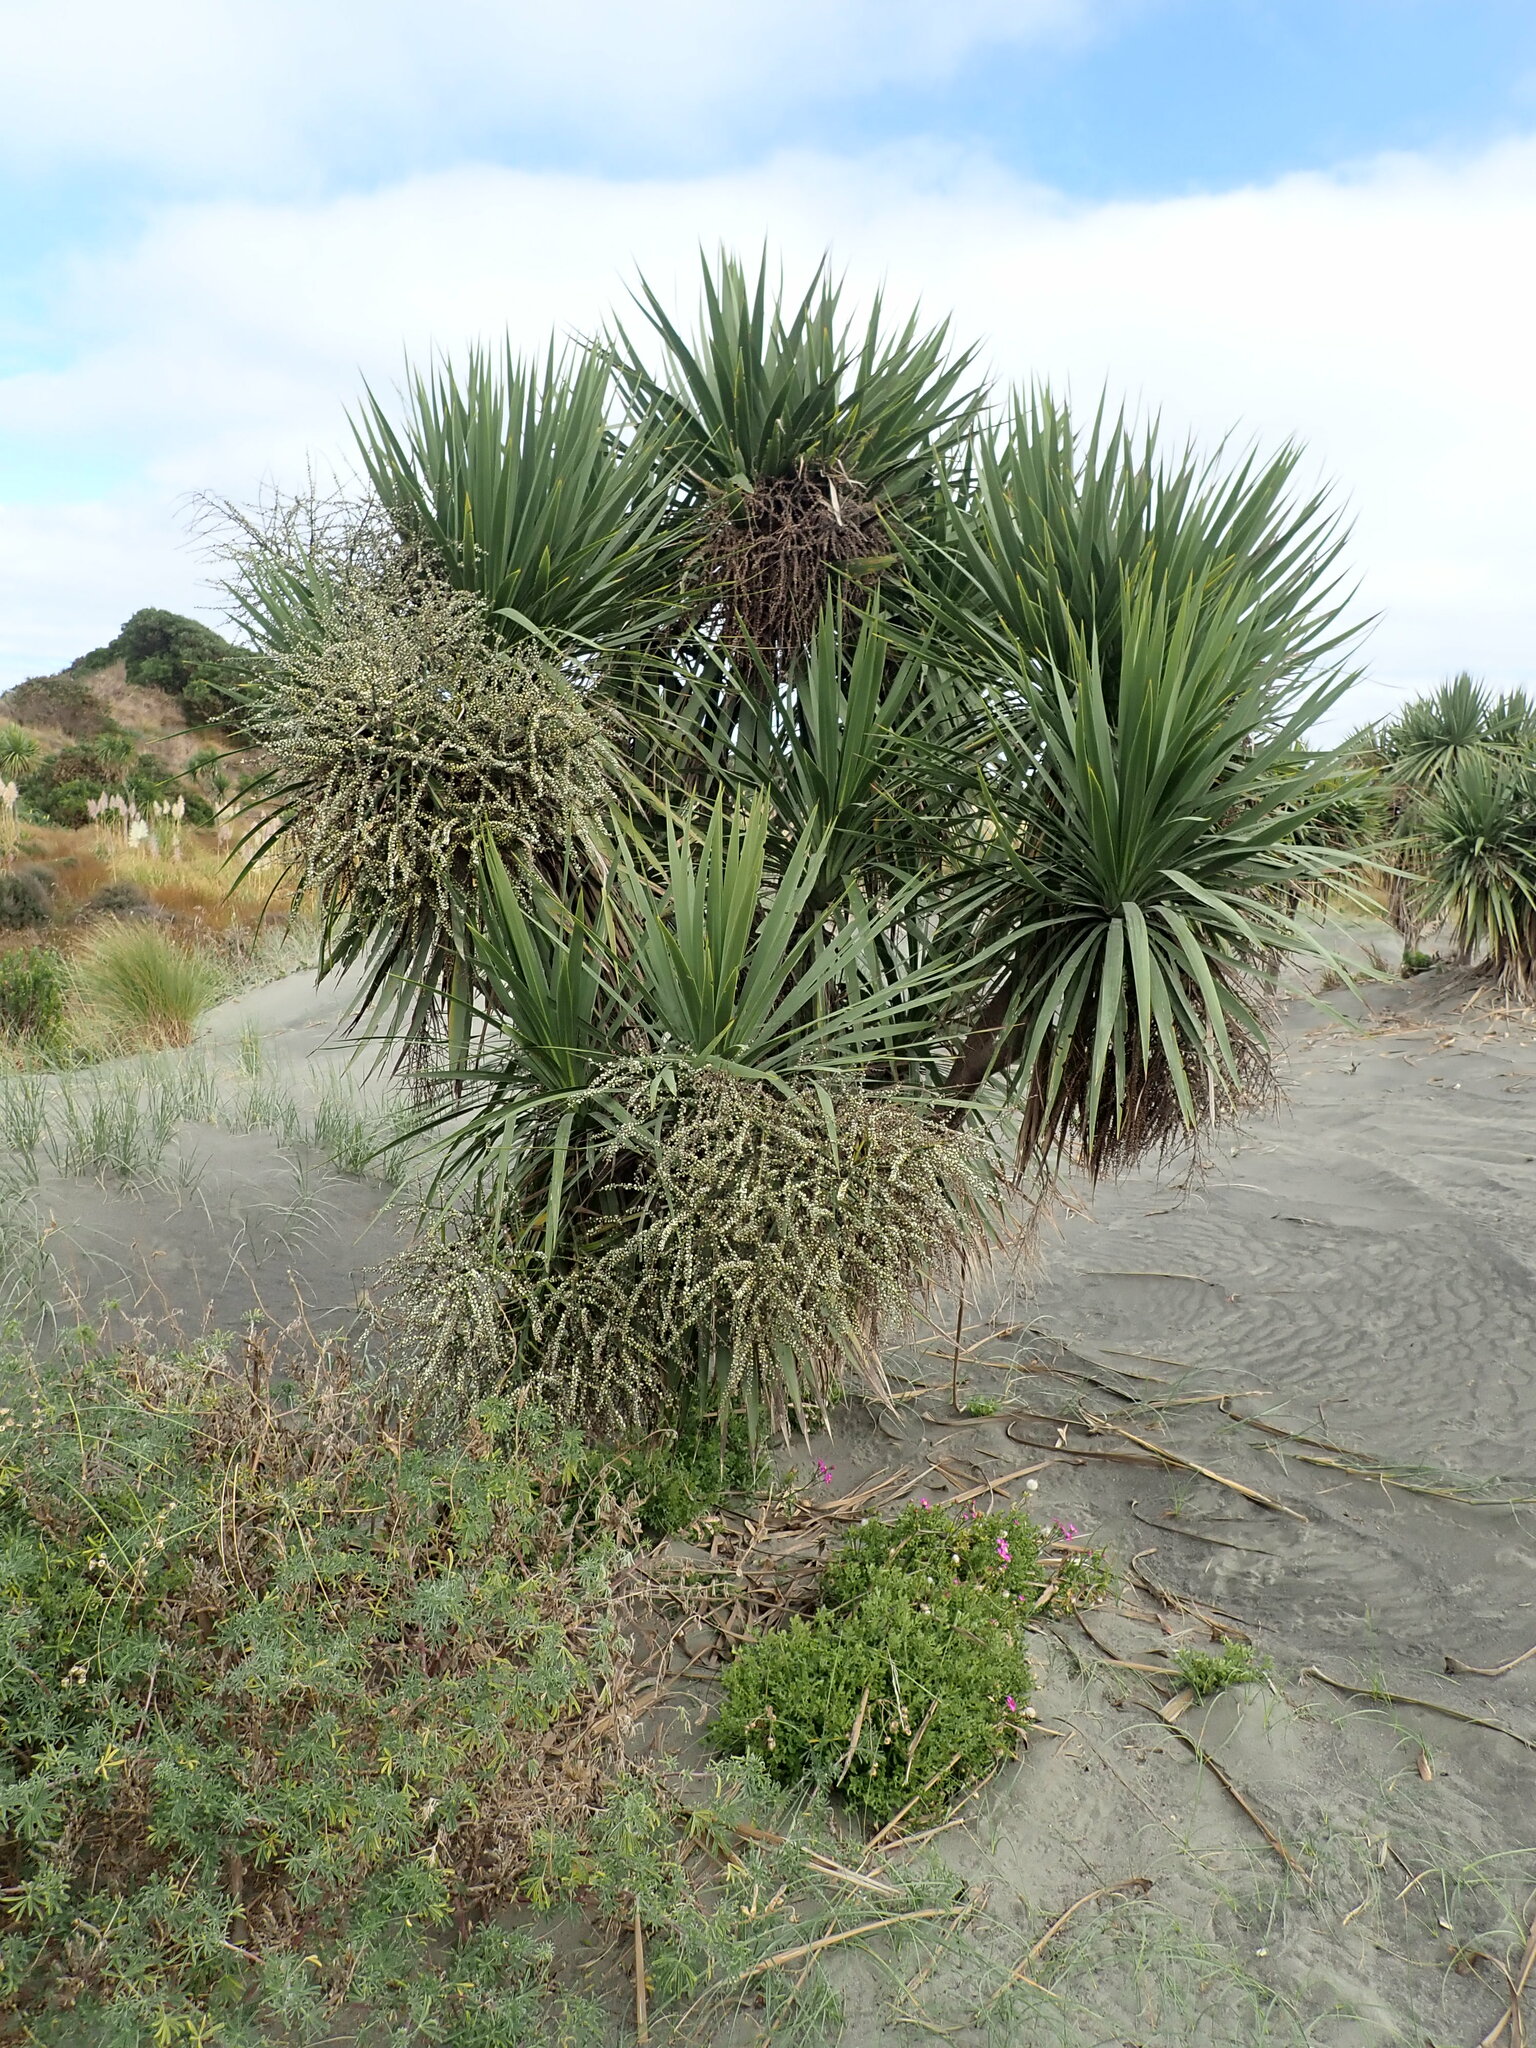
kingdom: Plantae
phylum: Tracheophyta
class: Liliopsida
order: Asparagales
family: Asparagaceae
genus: Cordyline
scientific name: Cordyline australis
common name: Cabbage-palm
